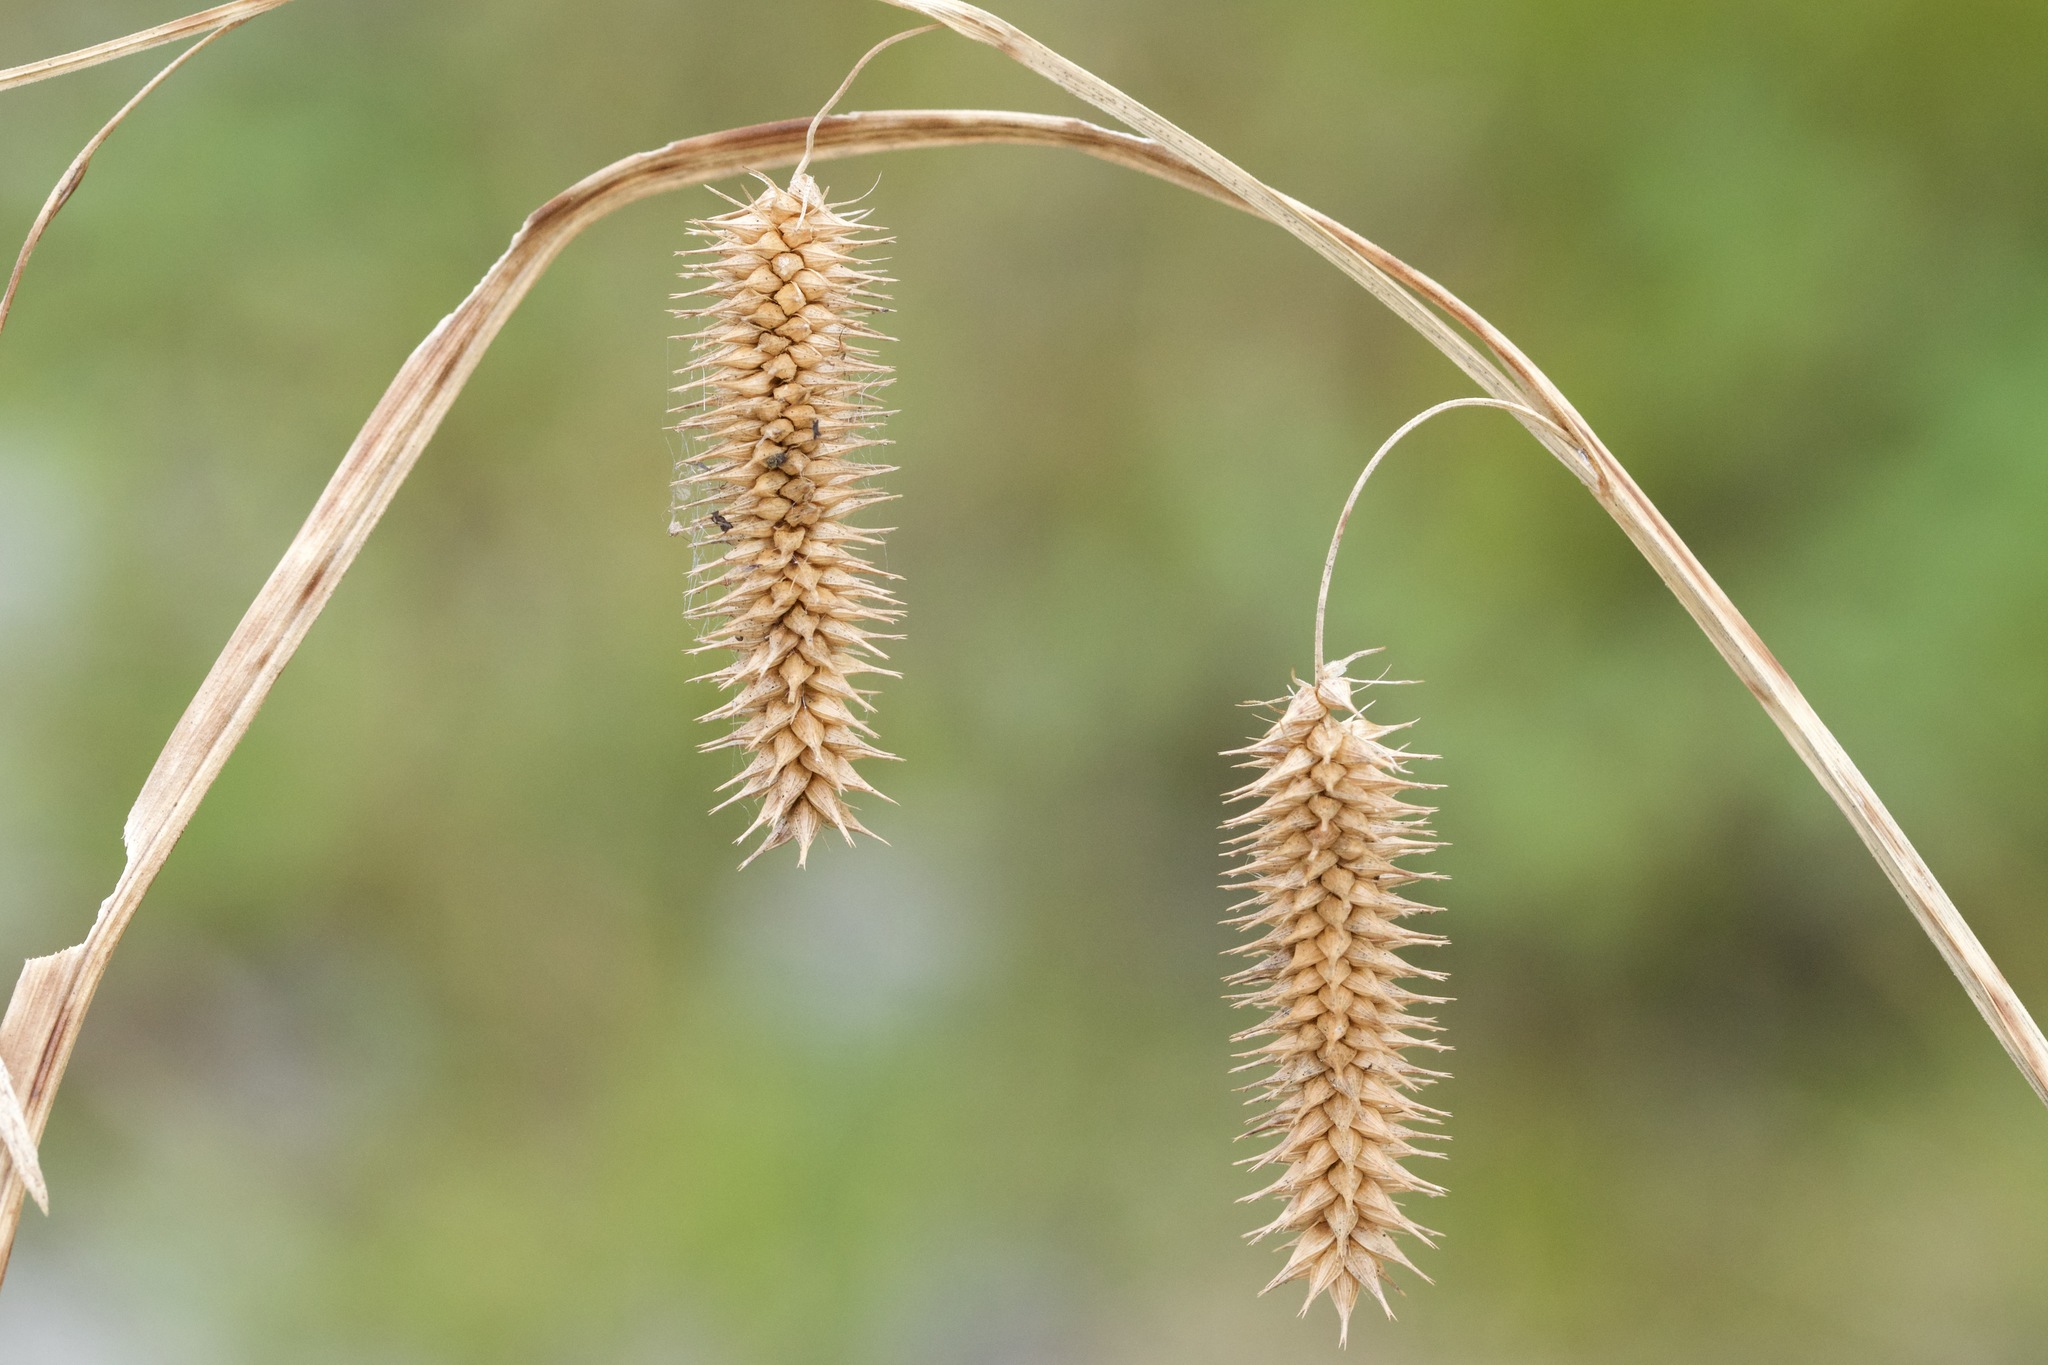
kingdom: Plantae
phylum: Tracheophyta
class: Liliopsida
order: Poales
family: Cyperaceae
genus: Carex
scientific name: Carex pseudocyperus
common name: Cyperus sedge
